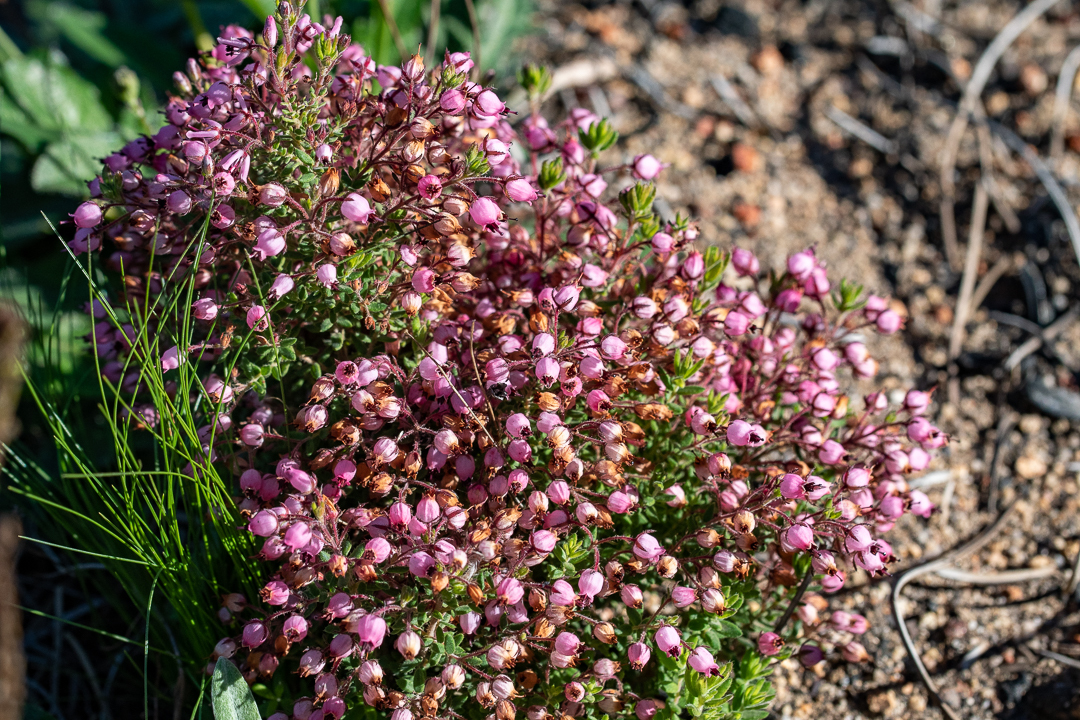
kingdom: Plantae
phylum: Tracheophyta
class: Magnoliopsida
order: Ericales
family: Ericaceae
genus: Erica
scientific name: Erica hirta
